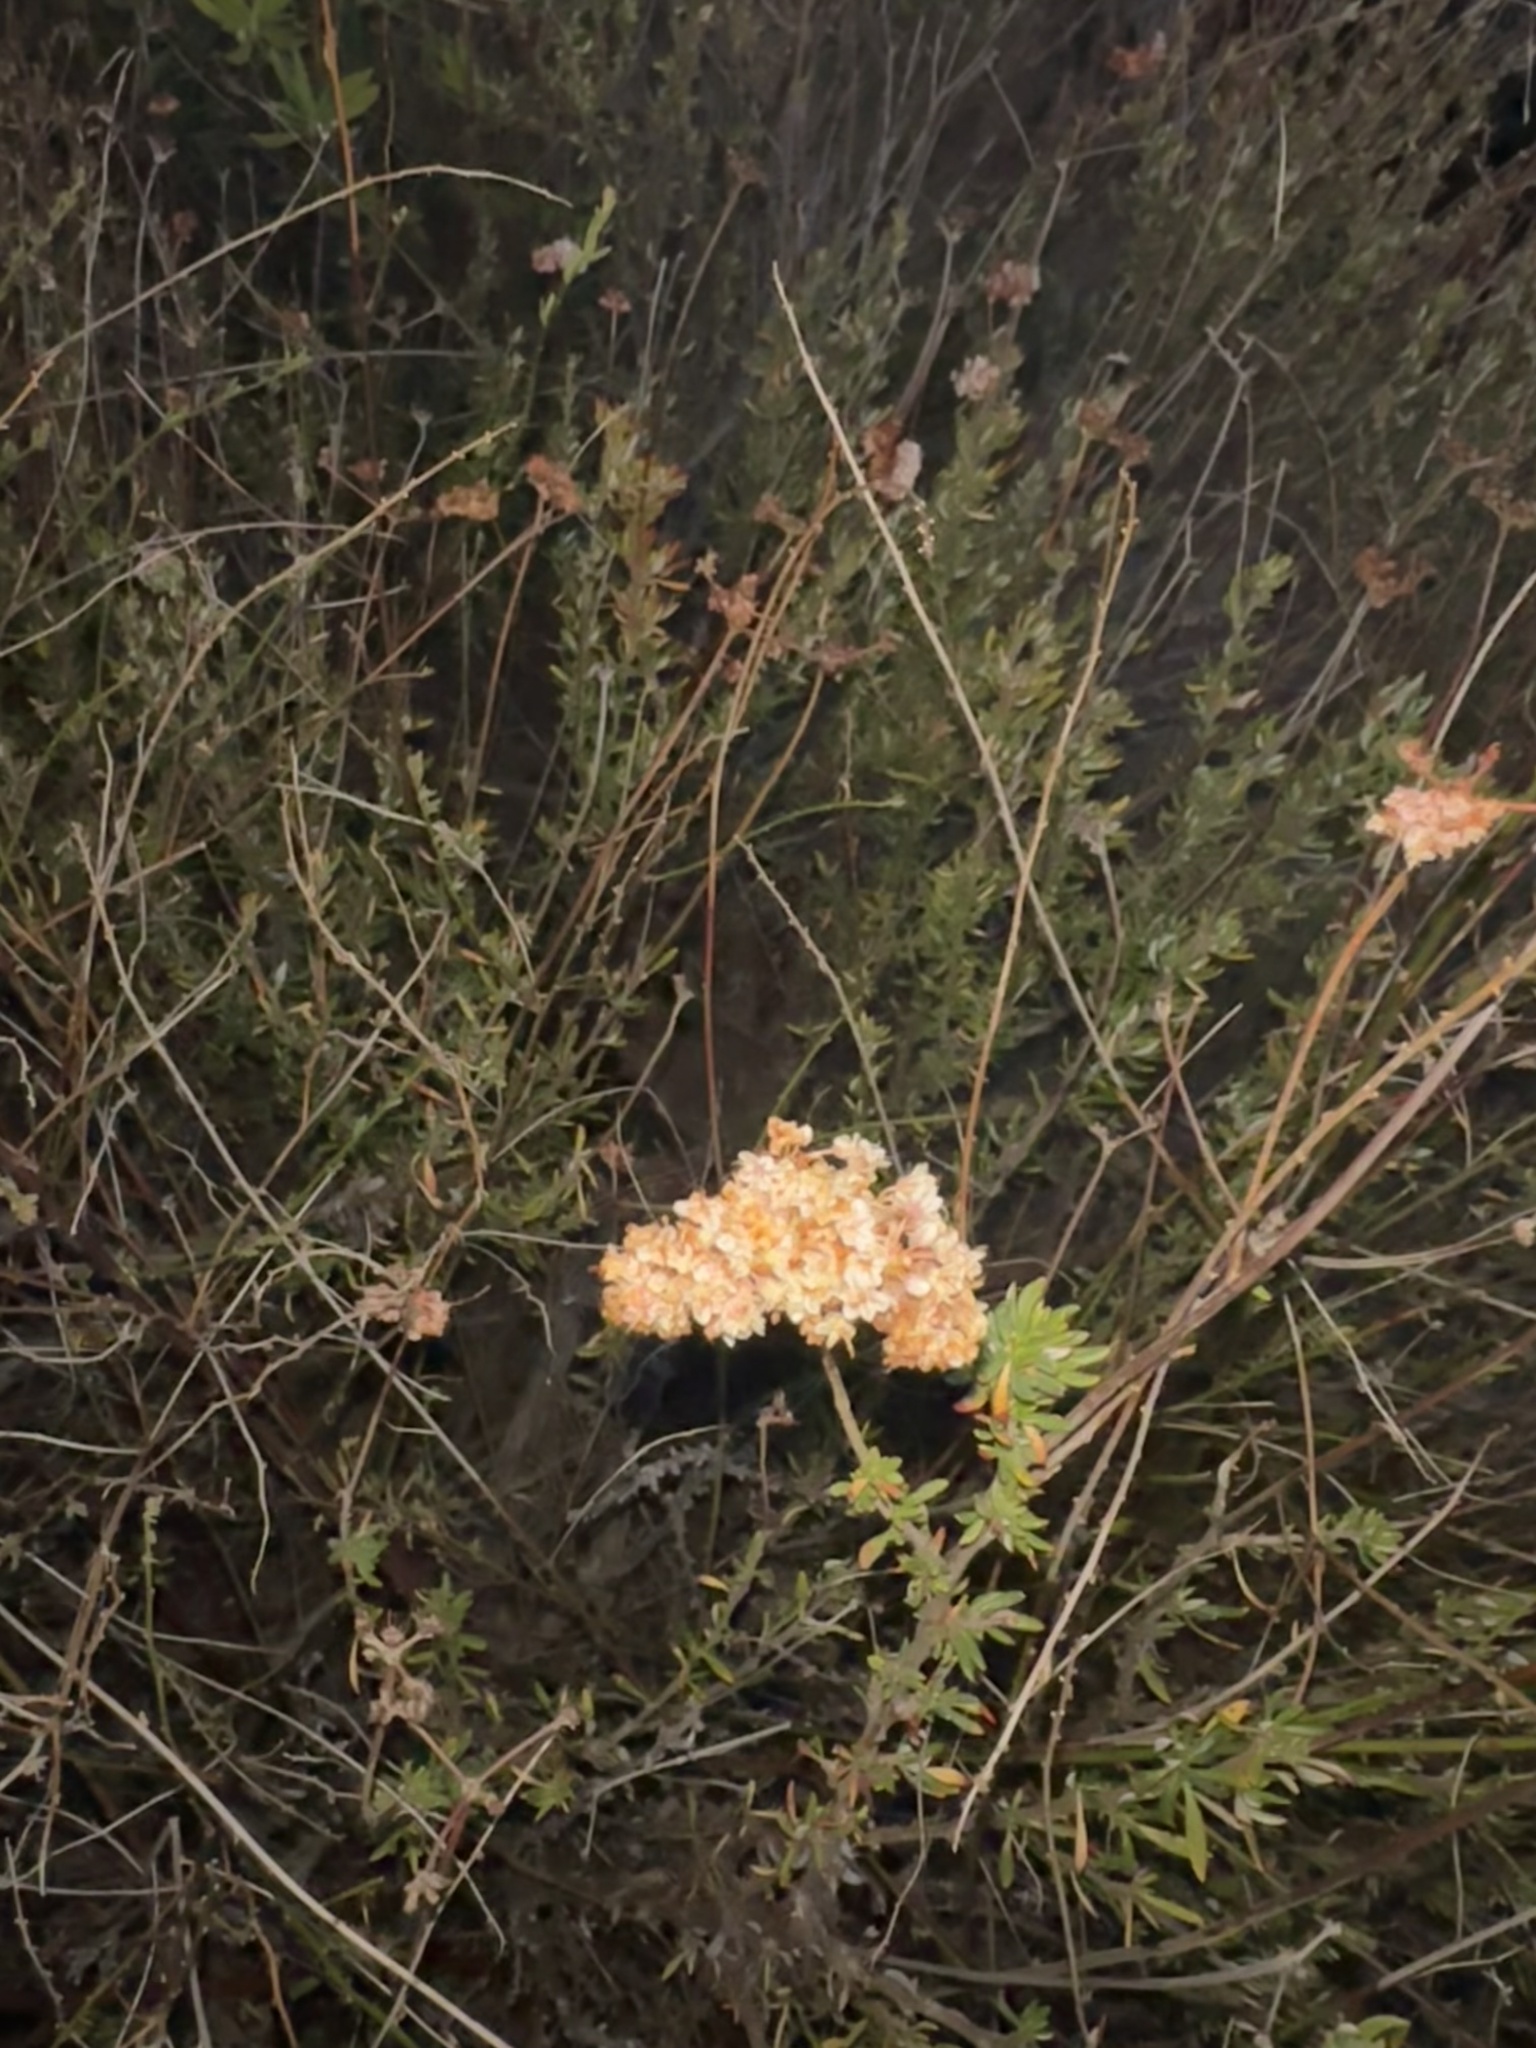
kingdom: Plantae
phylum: Tracheophyta
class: Magnoliopsida
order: Caryophyllales
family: Polygonaceae
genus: Eriogonum
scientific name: Eriogonum fasciculatum
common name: California wild buckwheat
